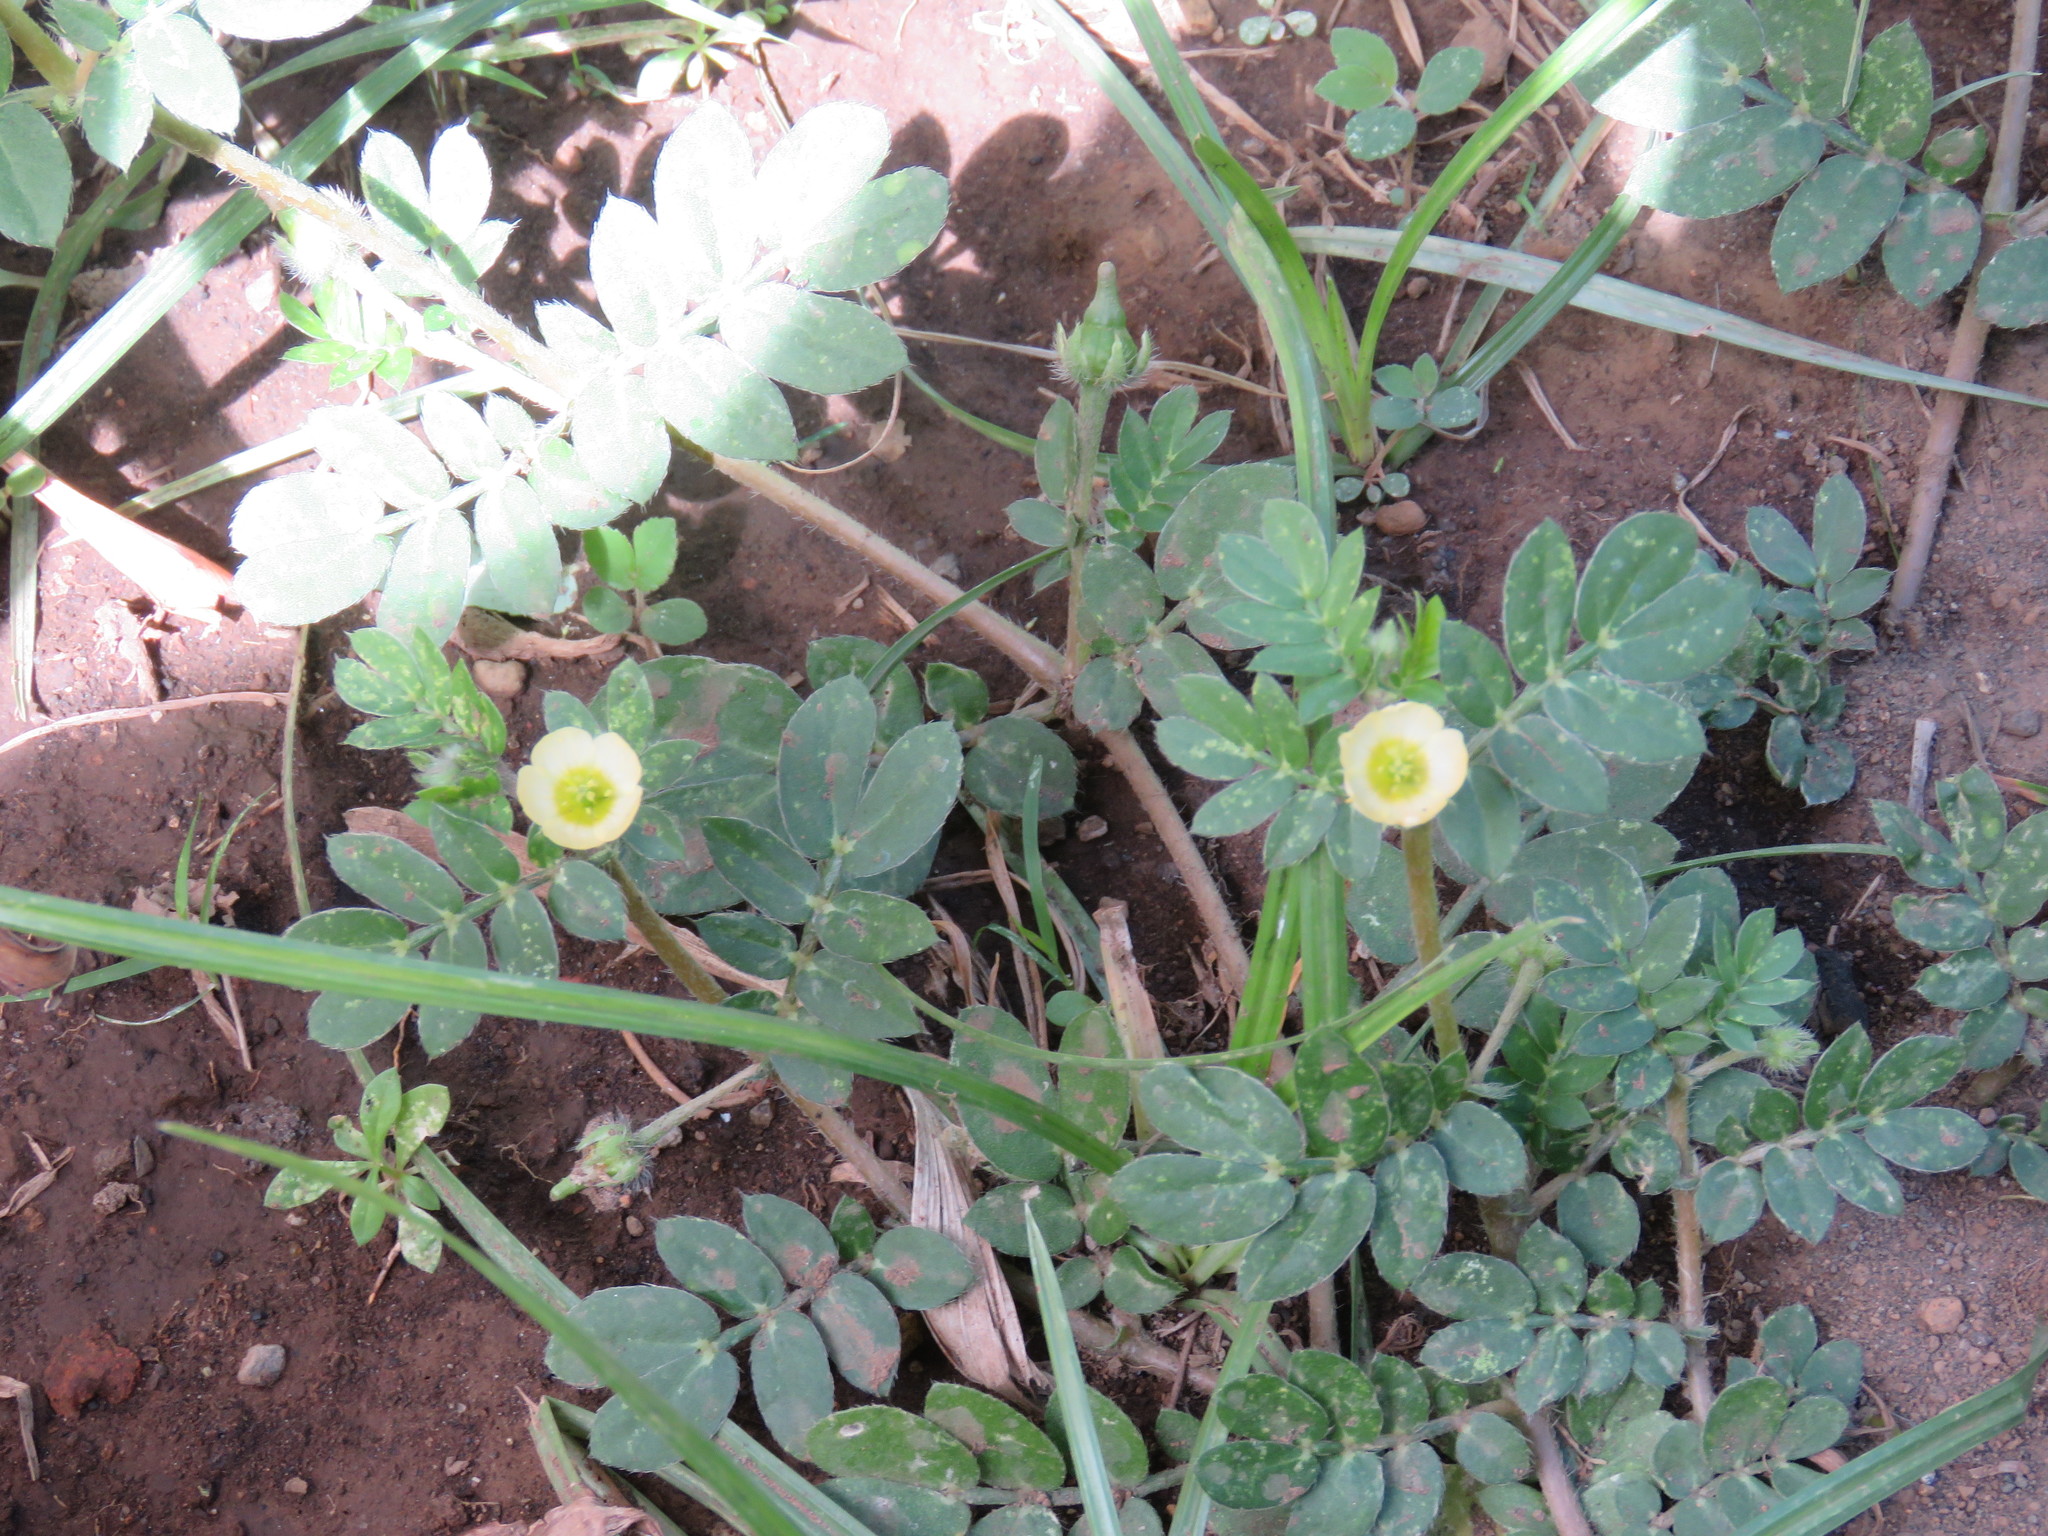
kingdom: Plantae
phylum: Tracheophyta
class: Magnoliopsida
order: Zygophyllales
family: Zygophyllaceae
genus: Kallstroemia
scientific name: Kallstroemia maxima
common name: Big caltropa
